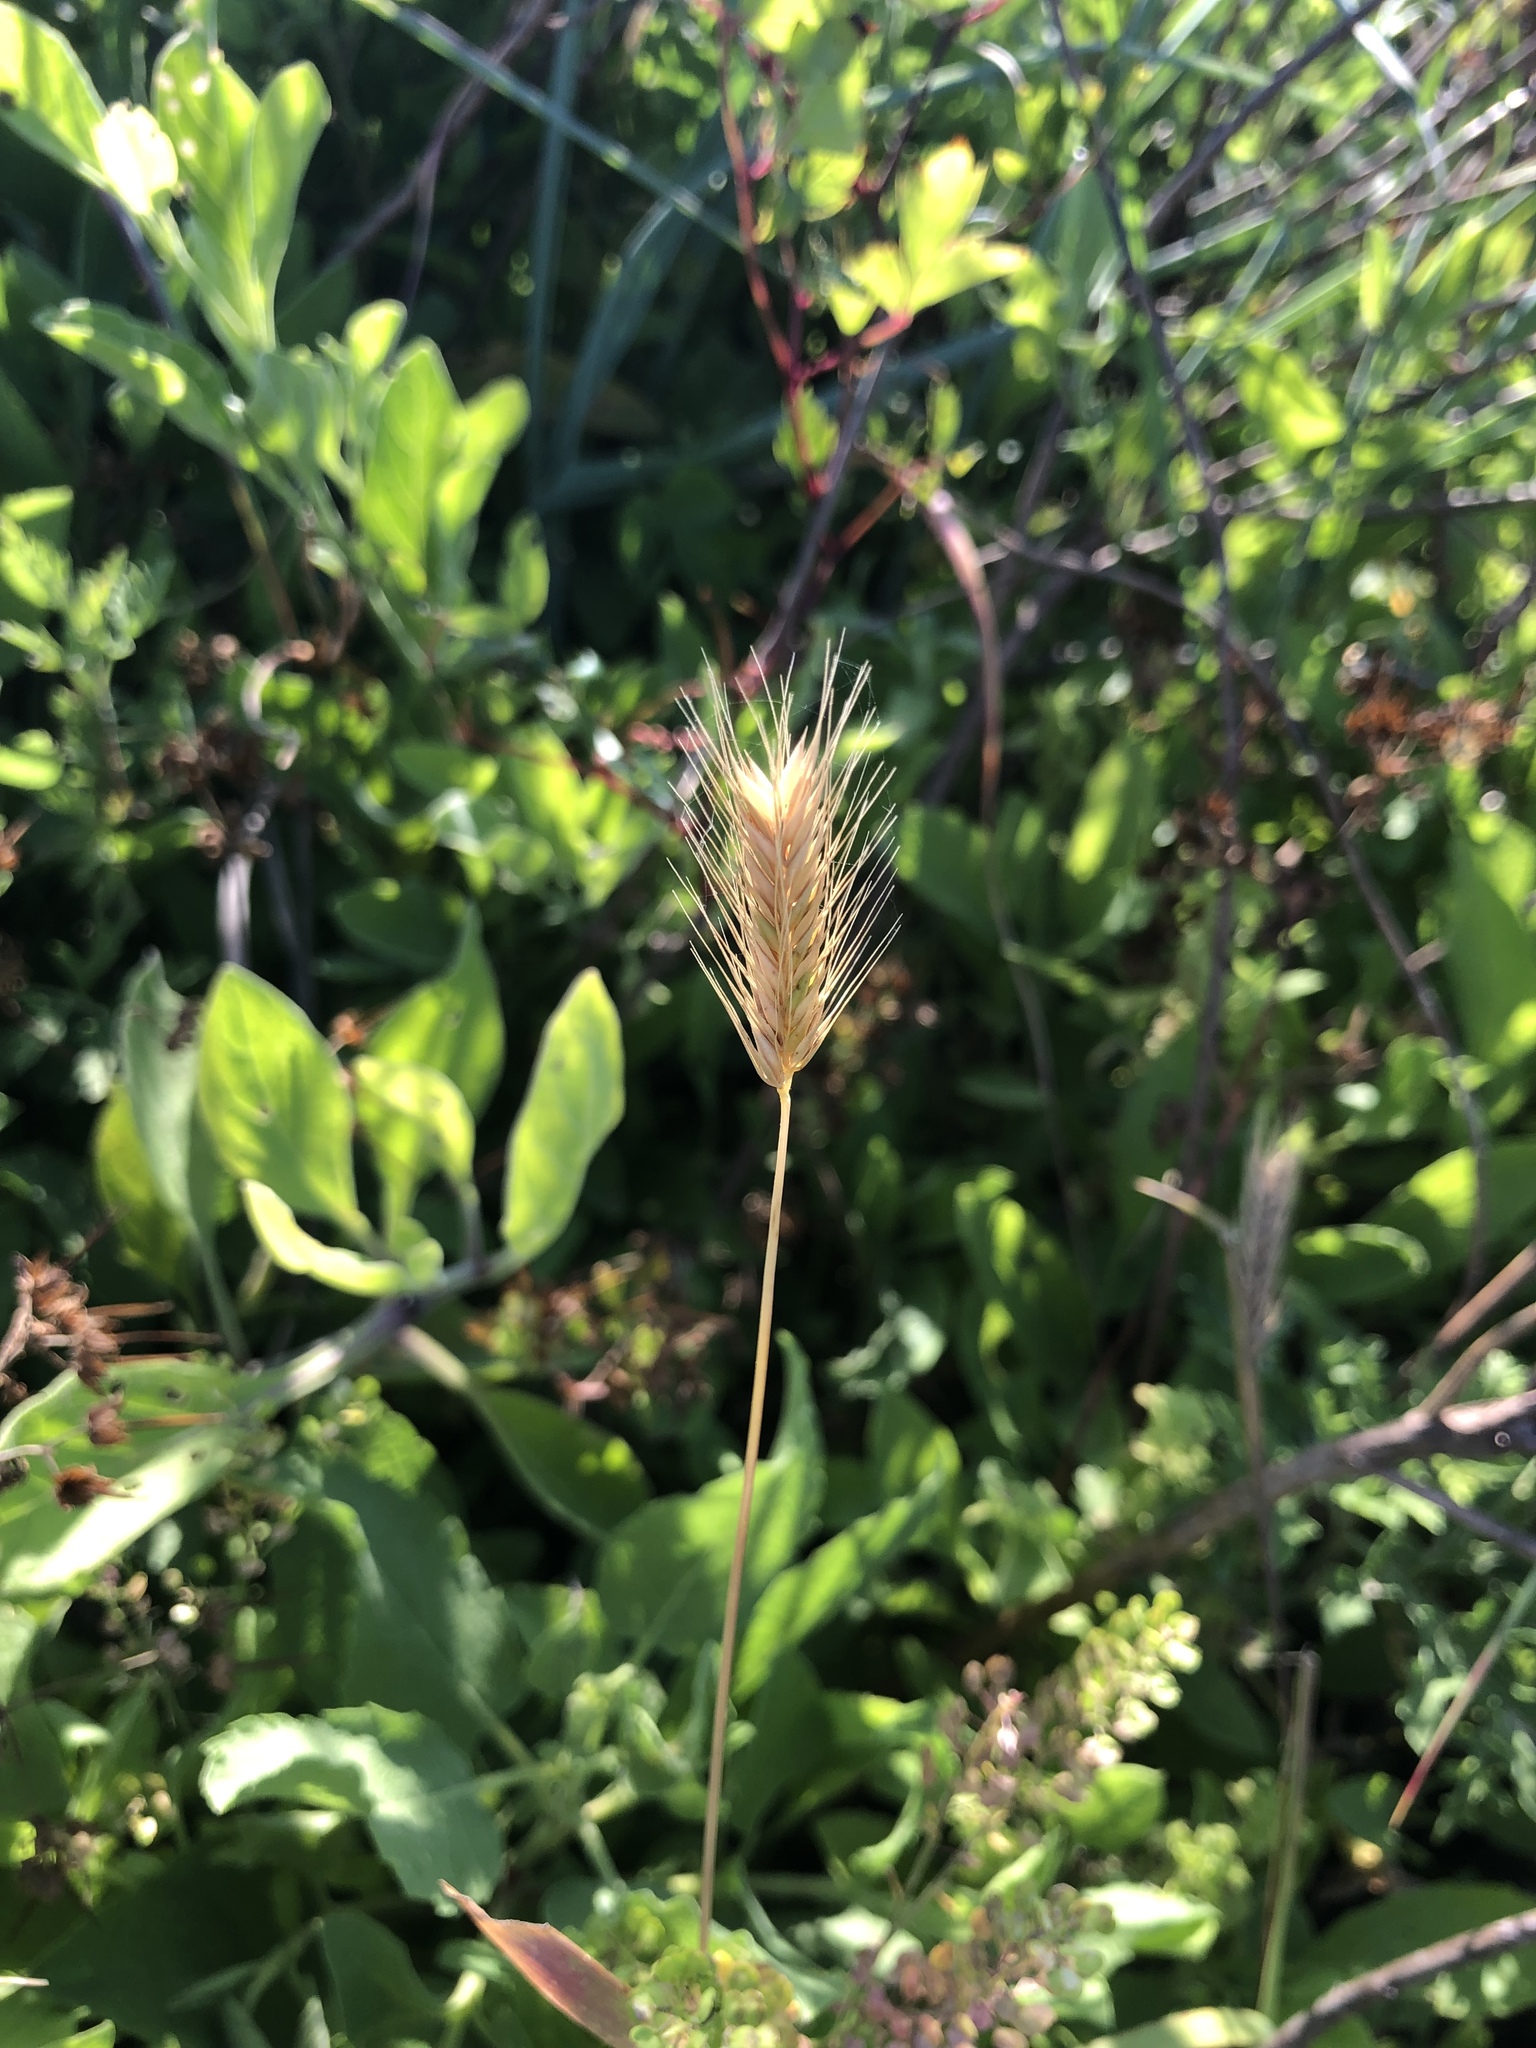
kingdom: Plantae
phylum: Tracheophyta
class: Liliopsida
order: Poales
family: Poaceae
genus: Hordeum
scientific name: Hordeum pusillum
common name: Little barley
